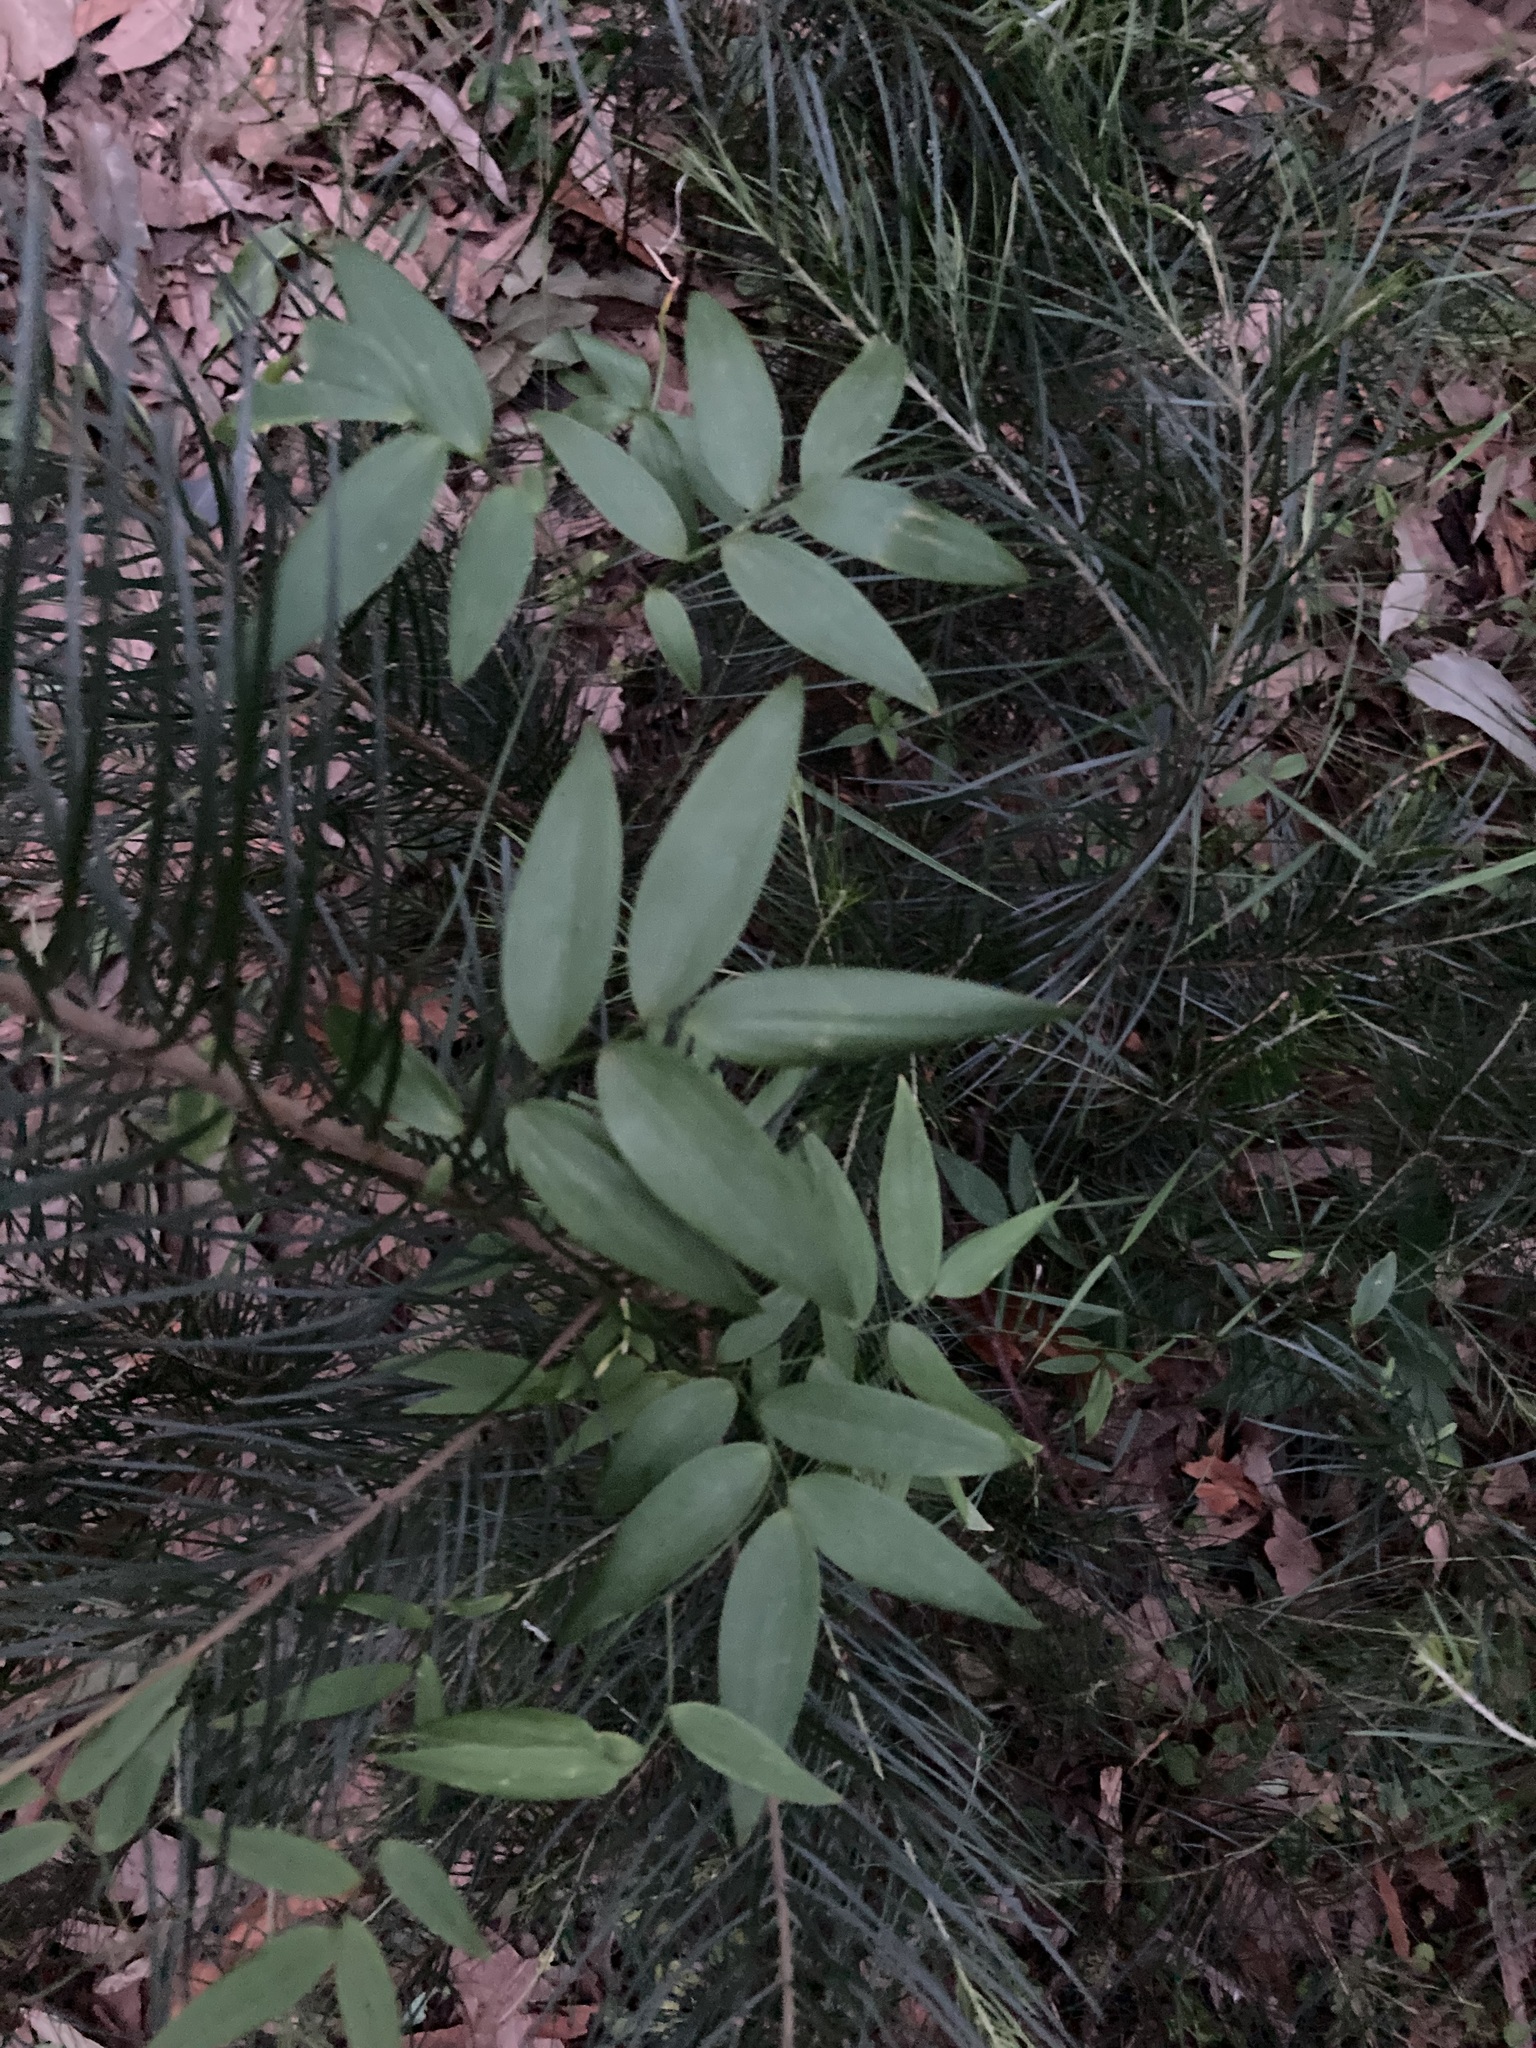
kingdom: Plantae
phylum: Tracheophyta
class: Liliopsida
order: Asparagales
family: Asparagaceae
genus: Eustrephus
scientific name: Eustrephus latifolius
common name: Orangevine
